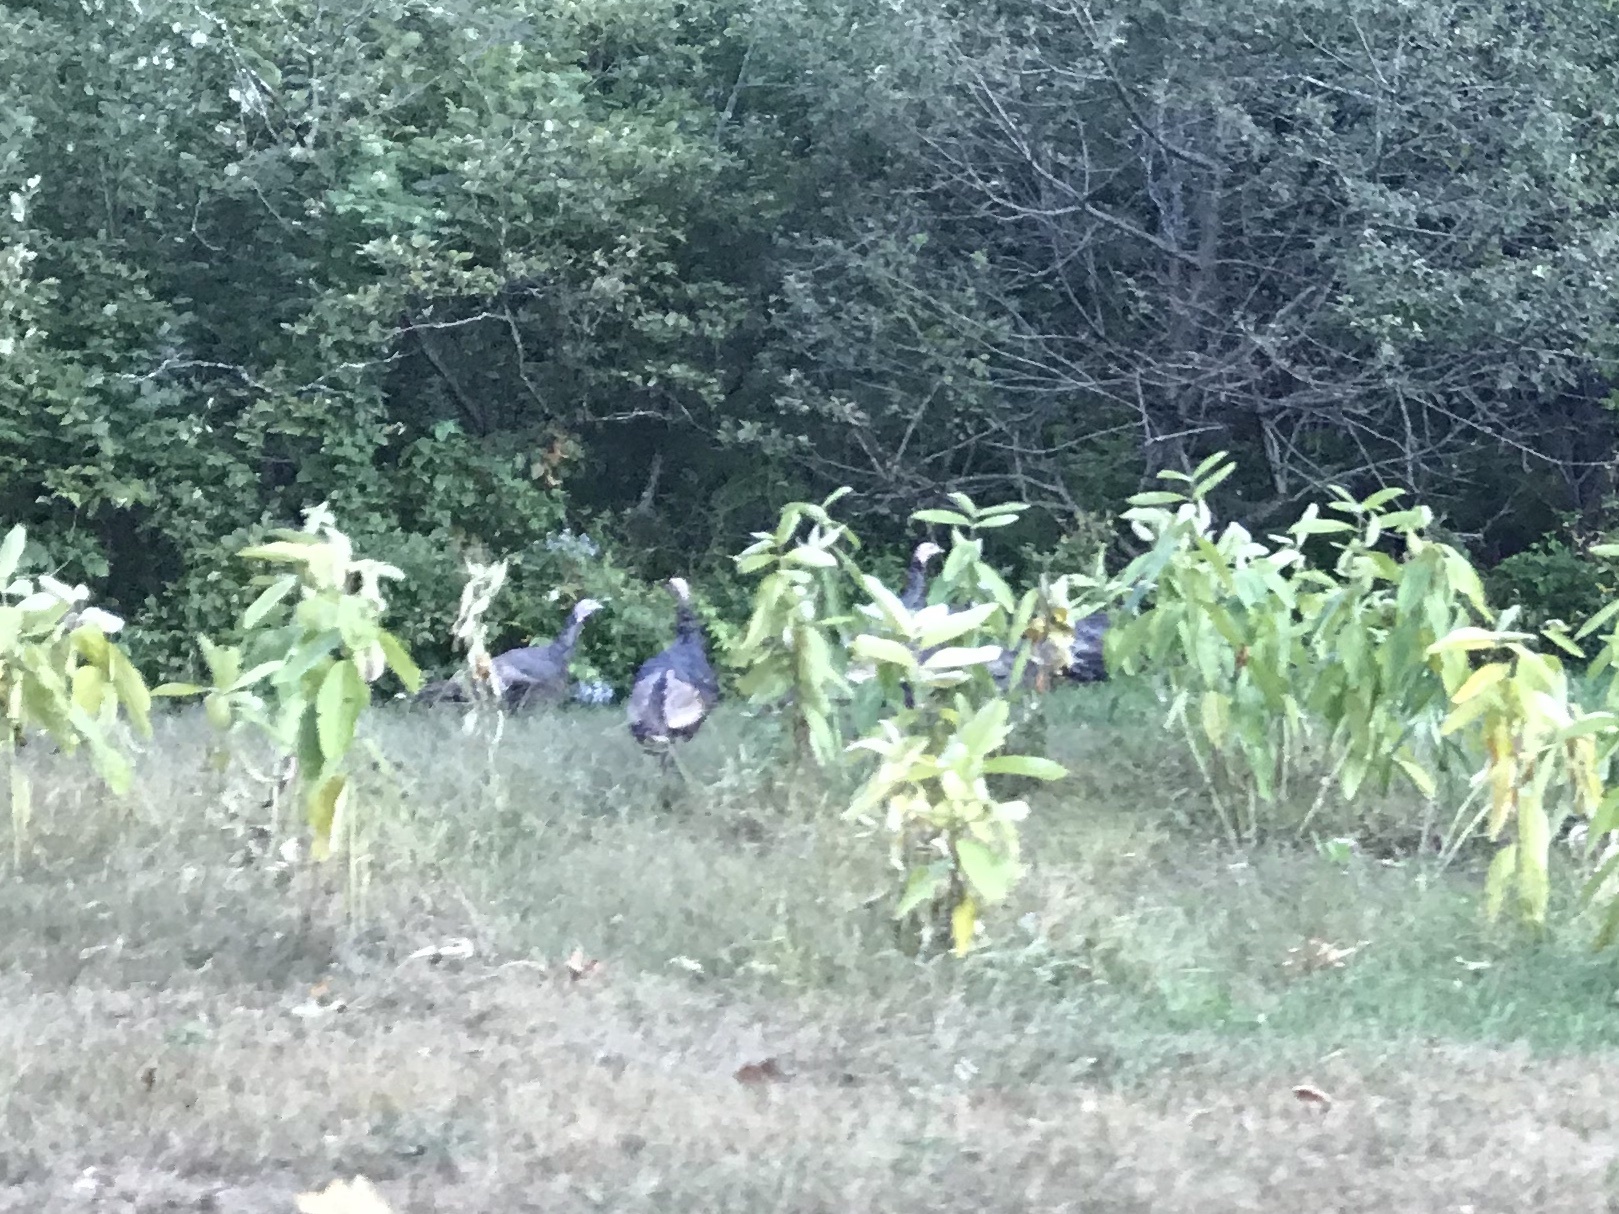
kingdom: Animalia
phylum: Chordata
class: Aves
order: Galliformes
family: Phasianidae
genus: Meleagris
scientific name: Meleagris gallopavo
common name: Wild turkey
